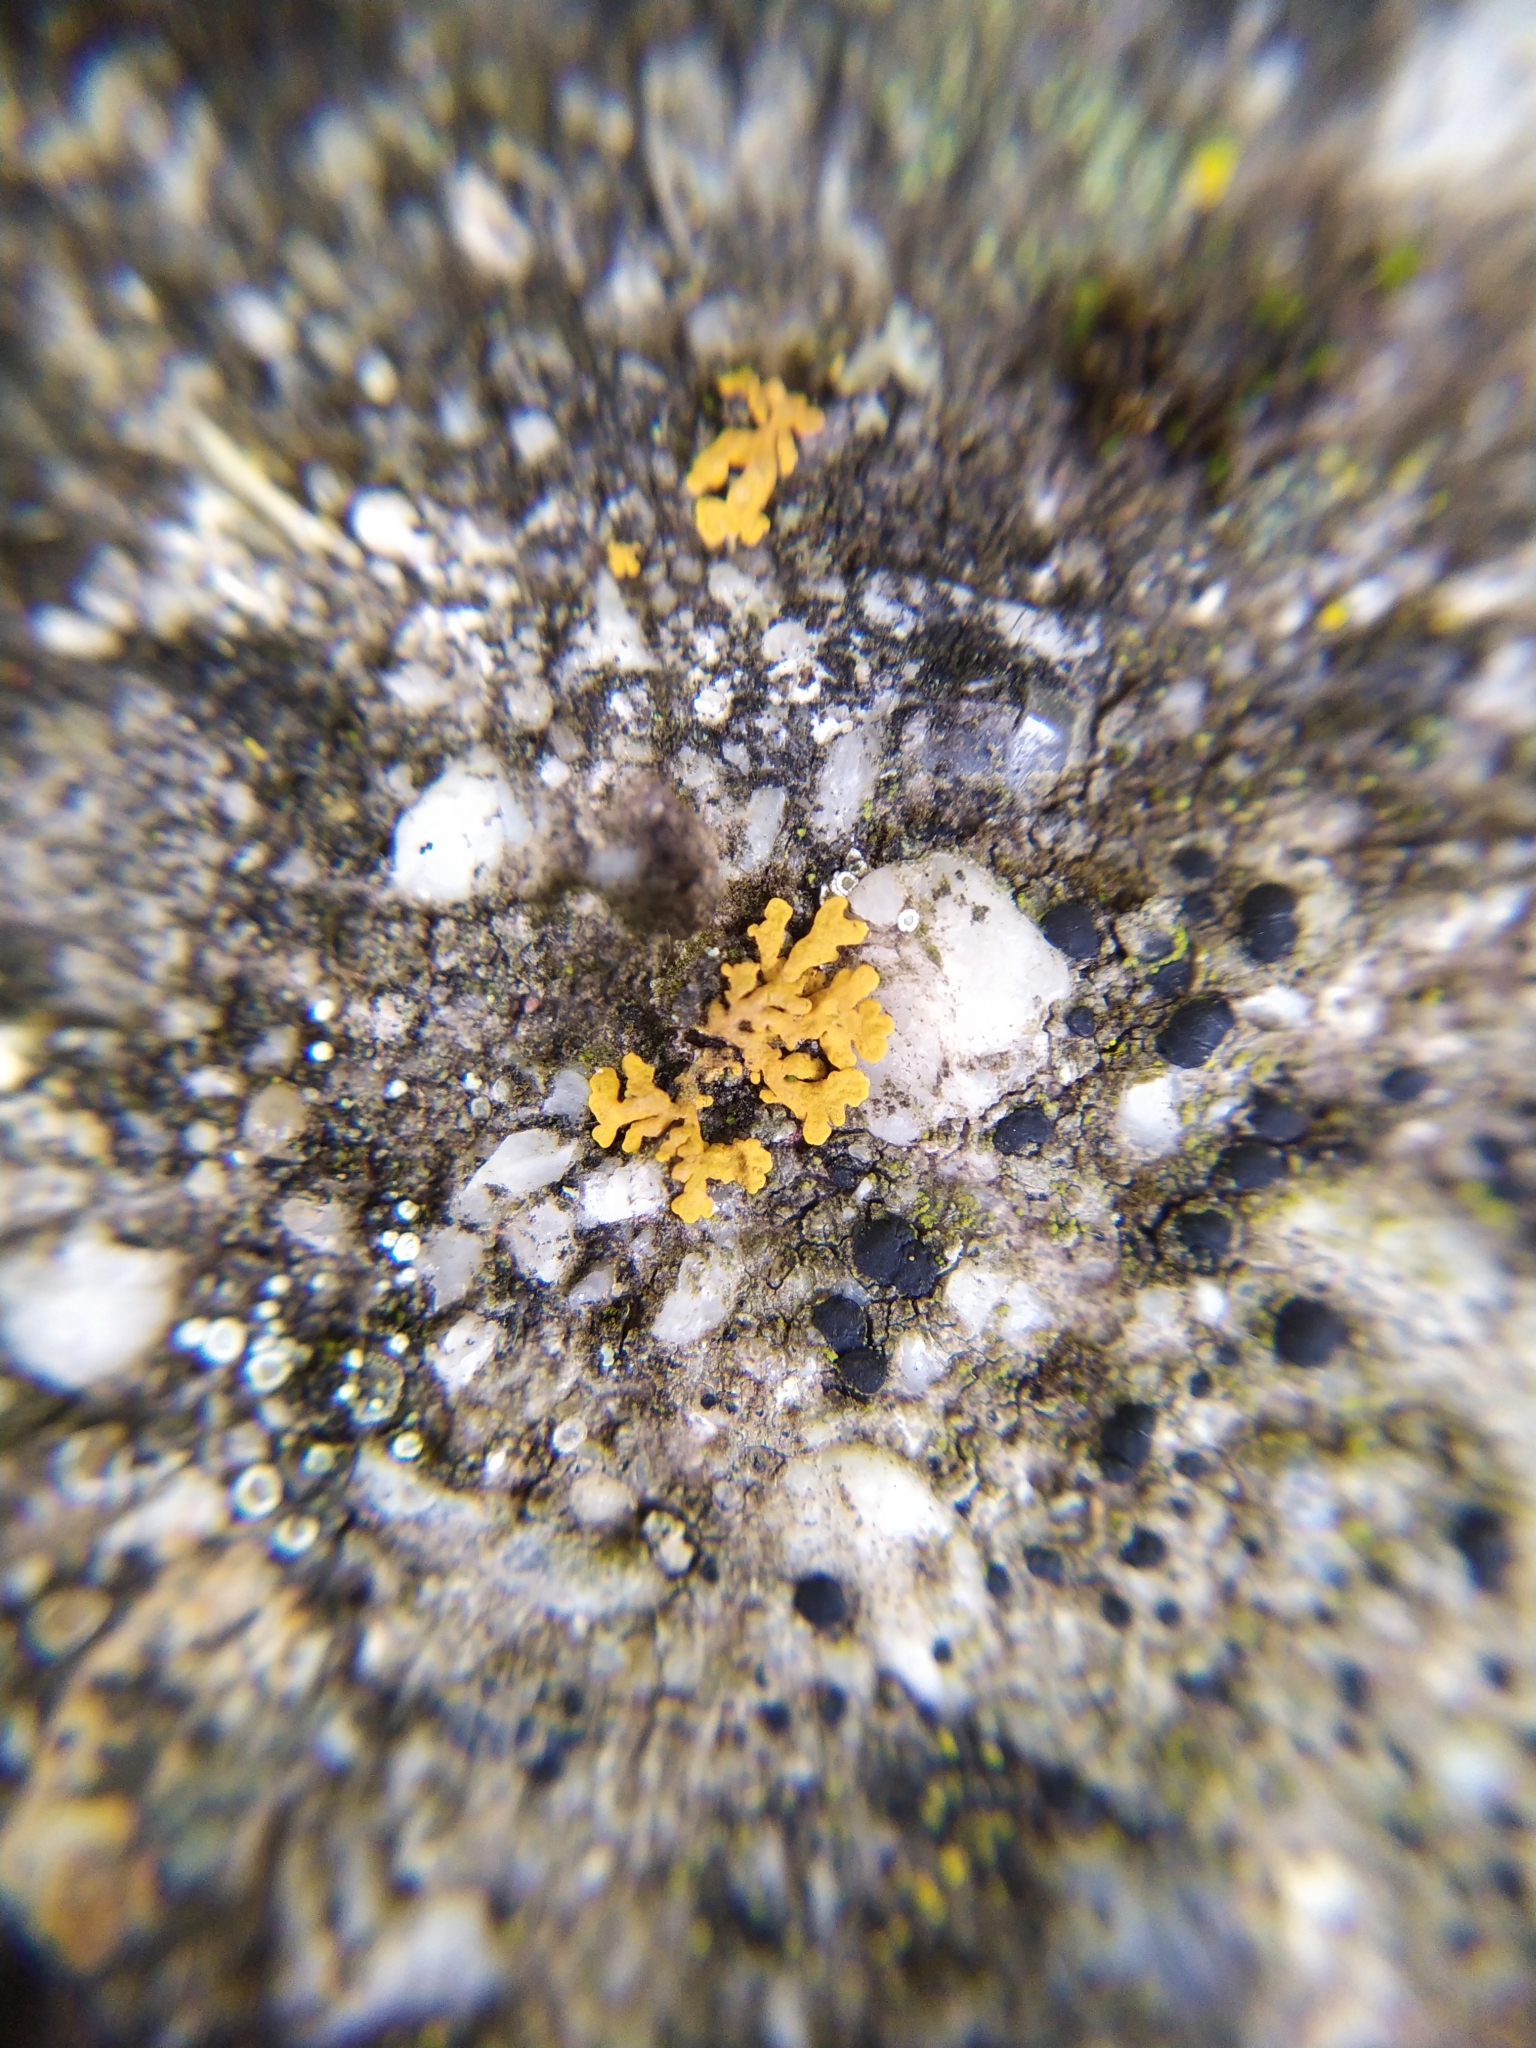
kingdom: Fungi
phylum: Ascomycota
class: Lecanoromycetes
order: Teloschistales
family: Teloschistaceae
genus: Xanthoria
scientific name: Xanthoria elegans
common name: Elegant sunburst lichen
